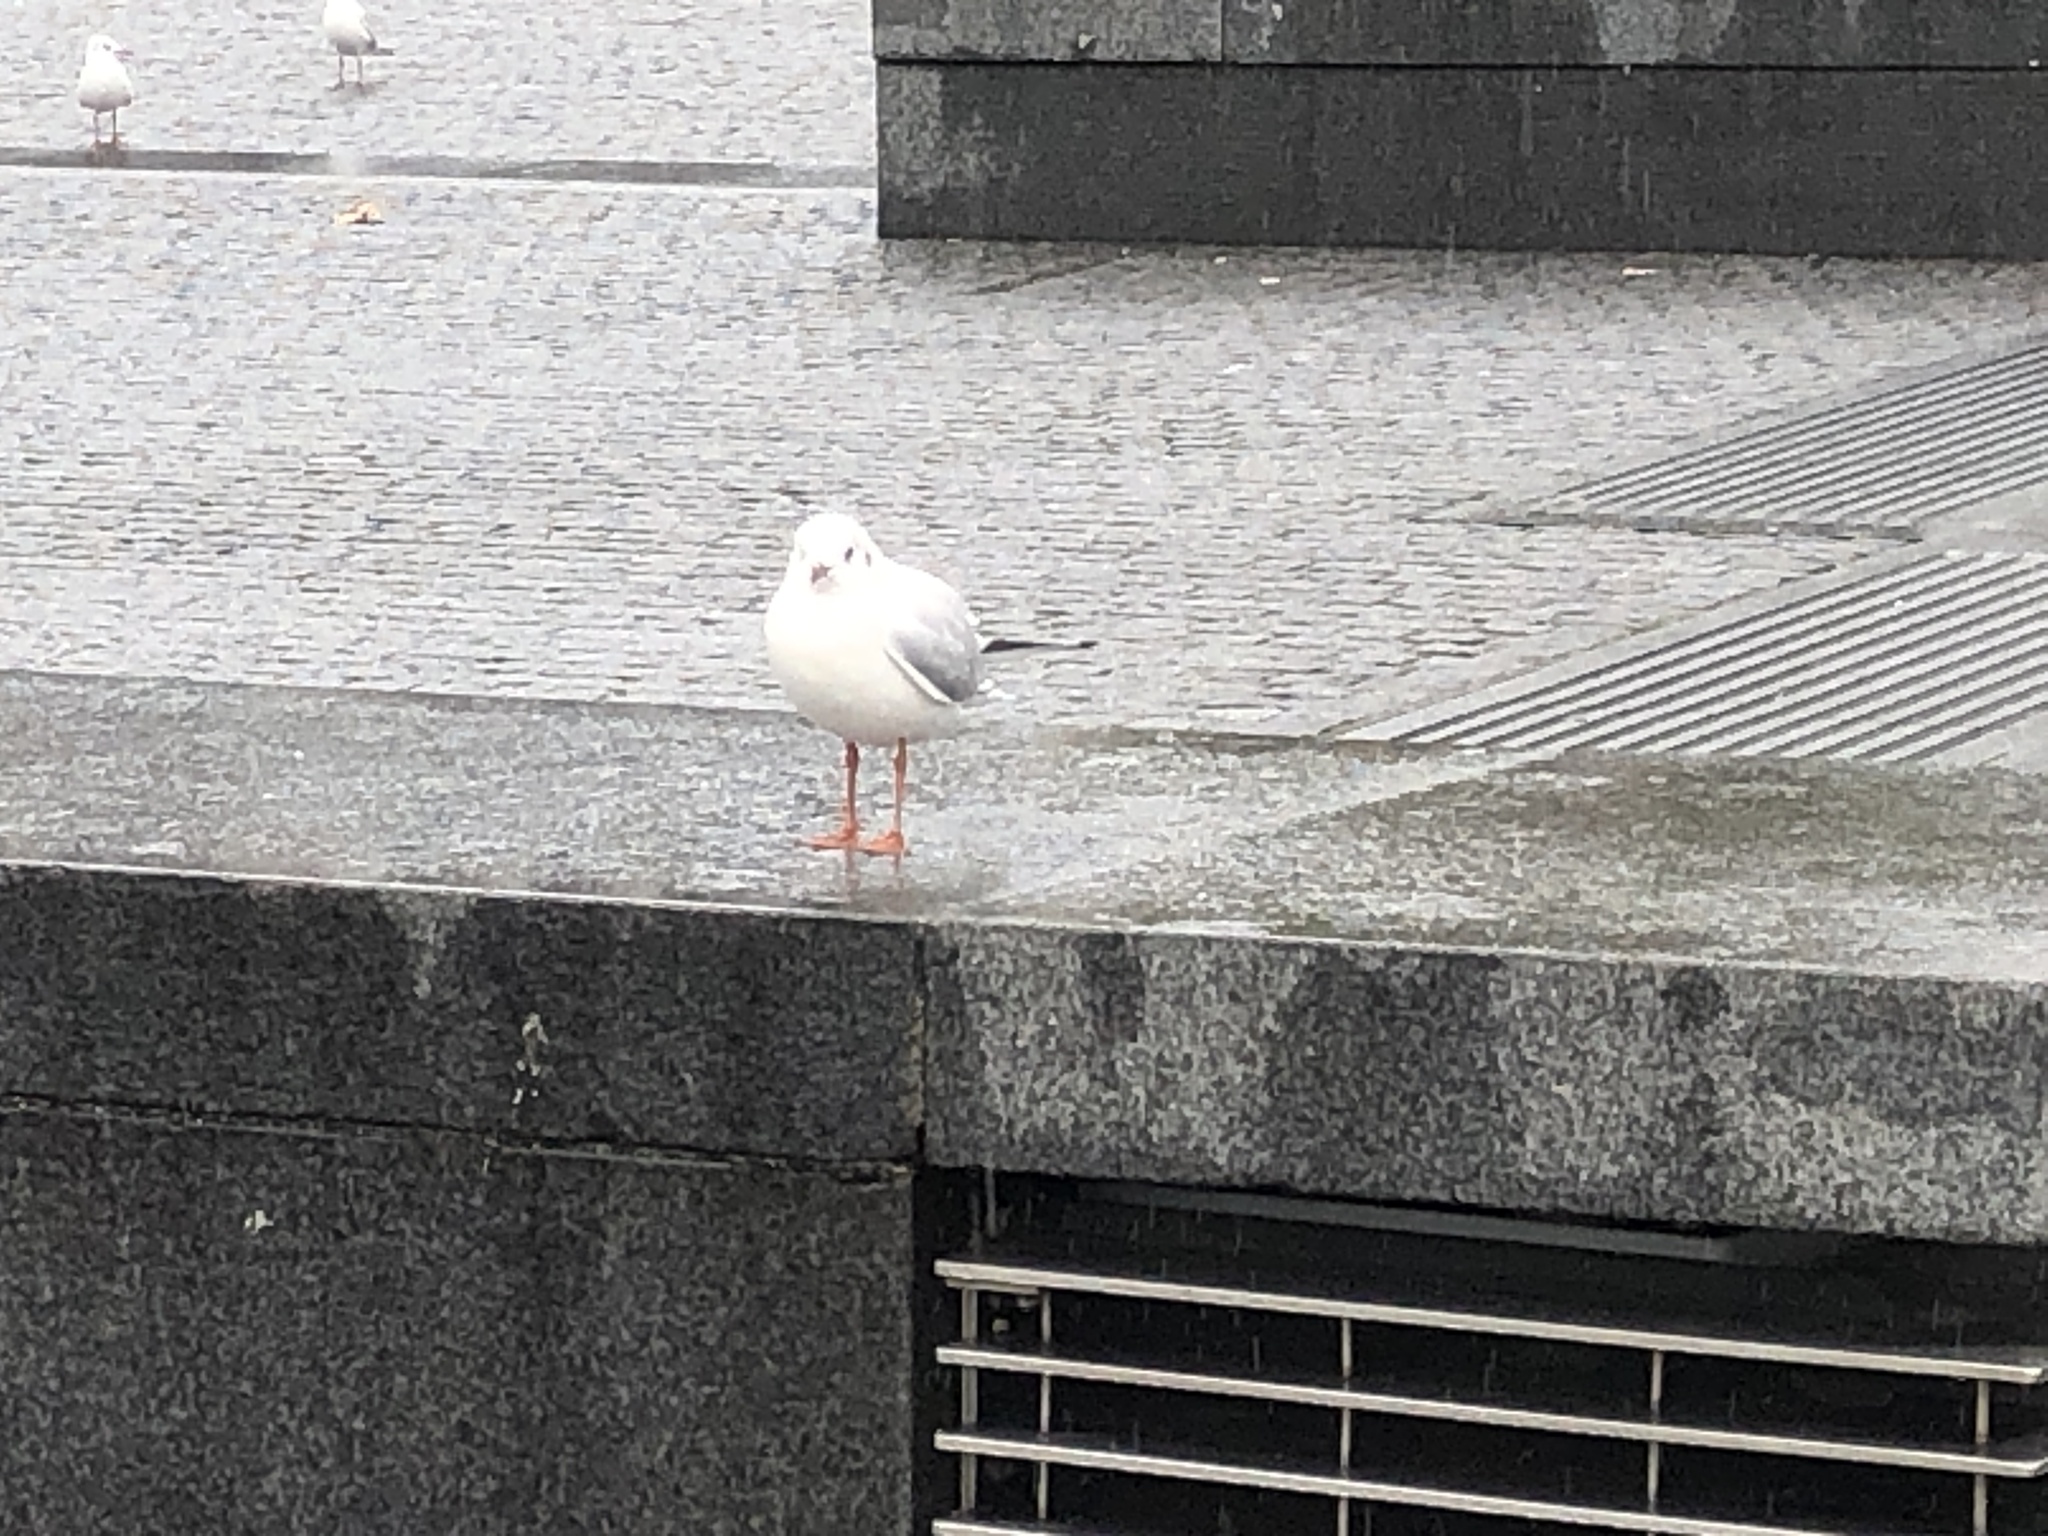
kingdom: Animalia
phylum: Chordata
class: Aves
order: Charadriiformes
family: Laridae
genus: Chroicocephalus
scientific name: Chroicocephalus ridibundus
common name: Black-headed gull
